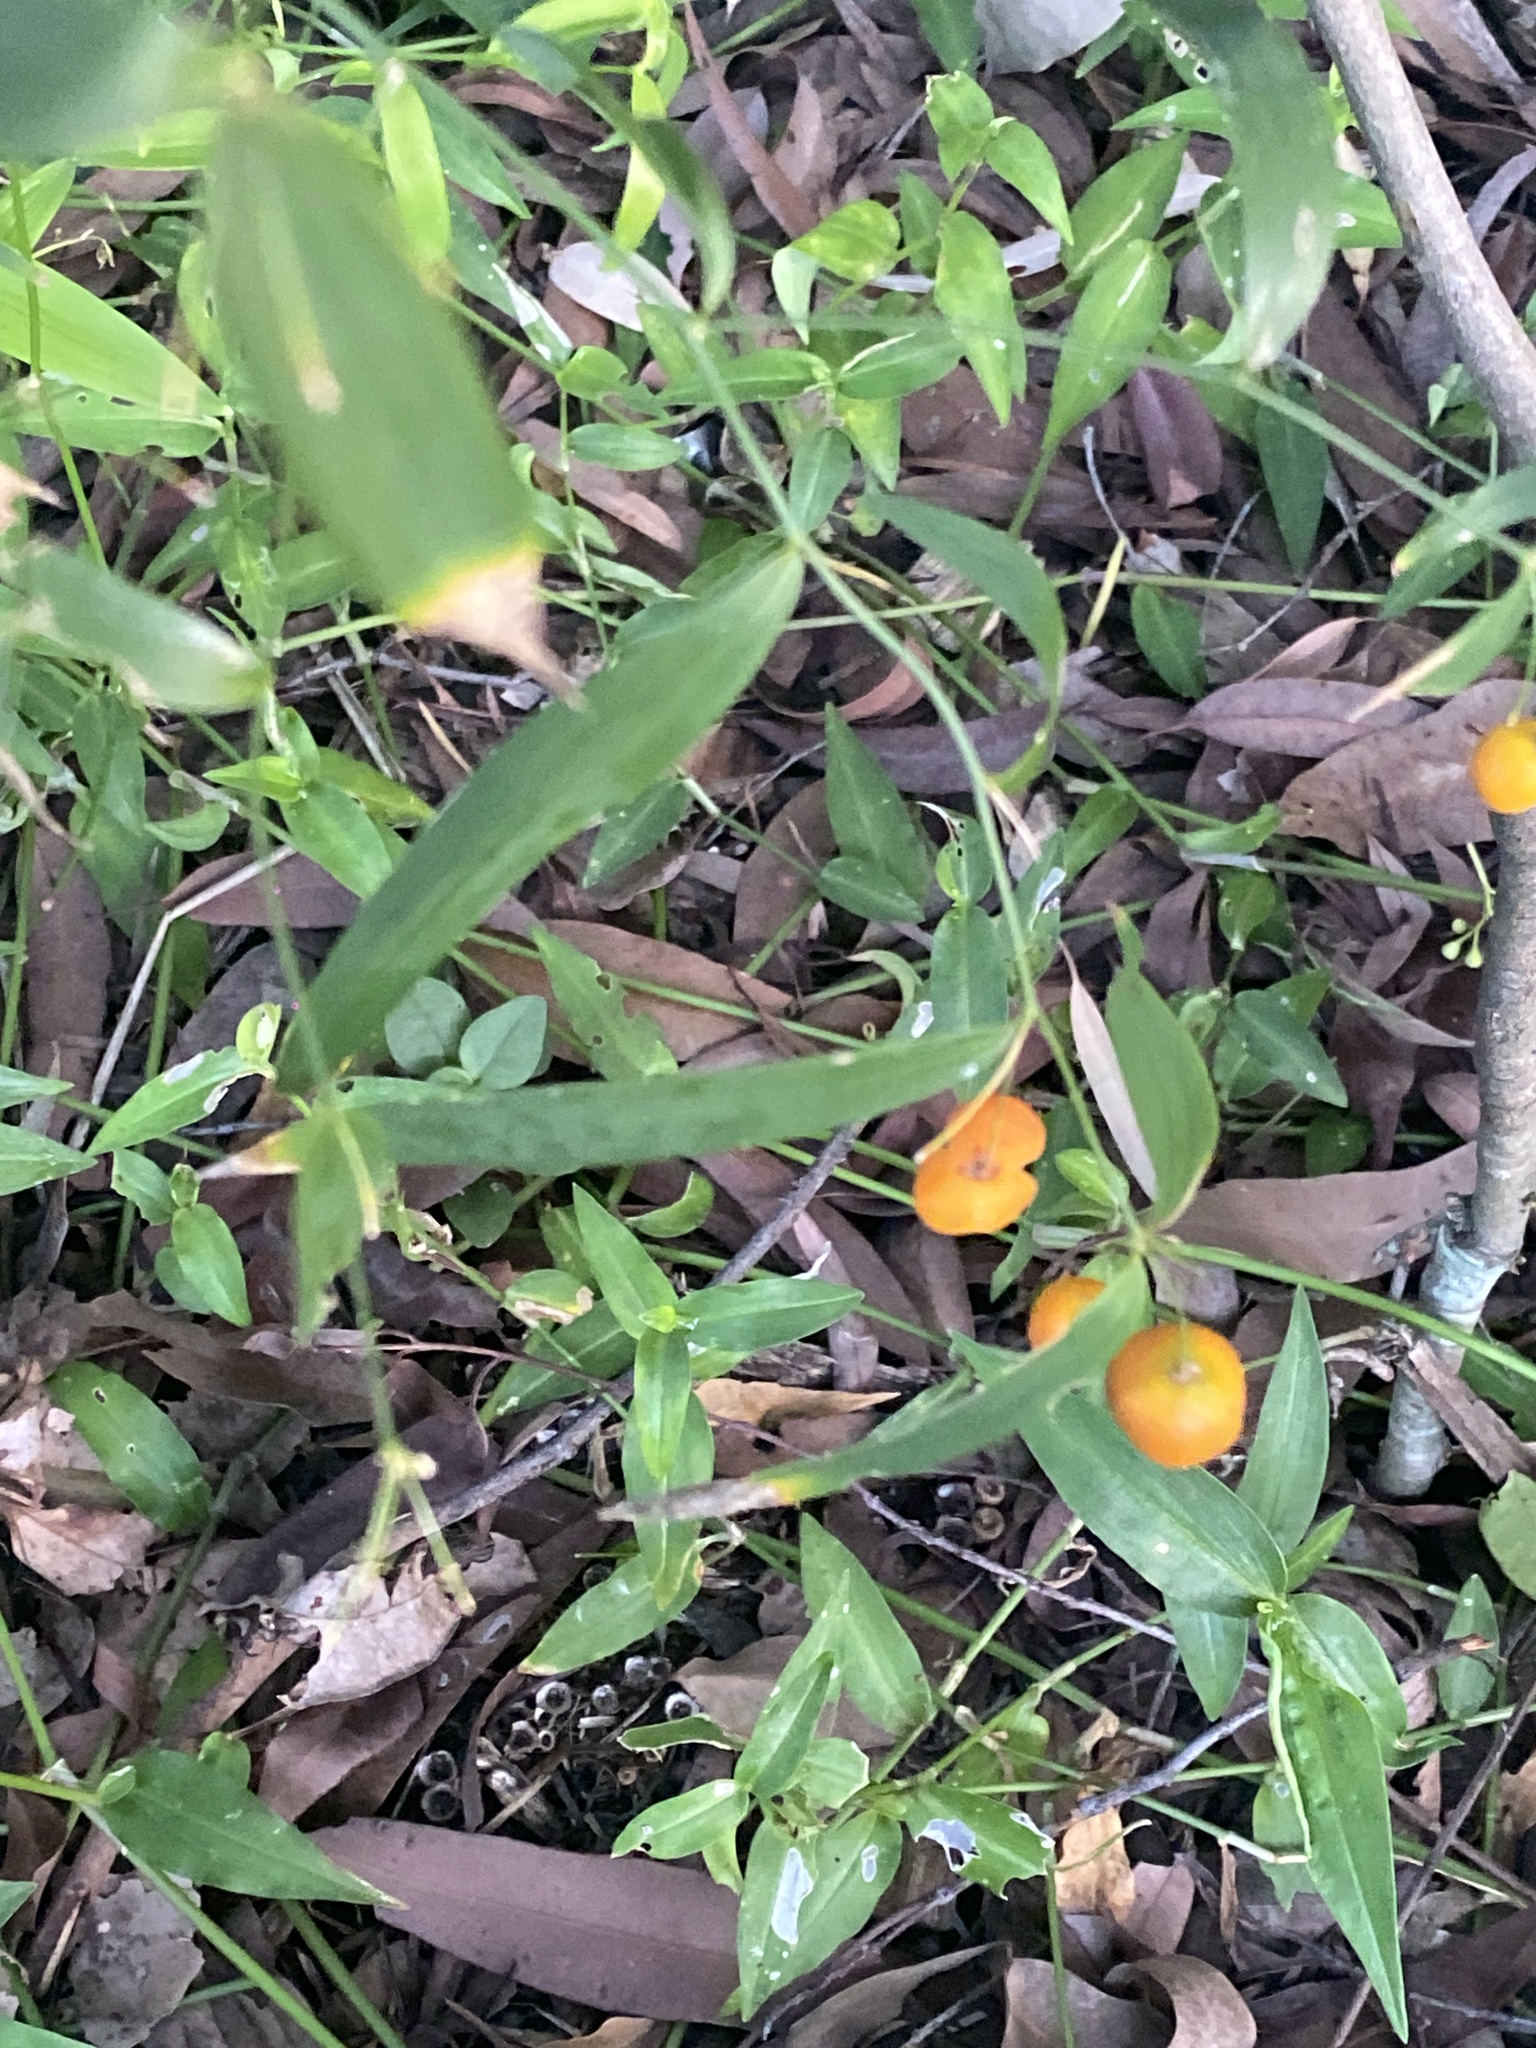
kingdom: Plantae
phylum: Tracheophyta
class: Liliopsida
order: Asparagales
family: Asparagaceae
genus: Eustrephus
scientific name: Eustrephus latifolius
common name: Orangevine
